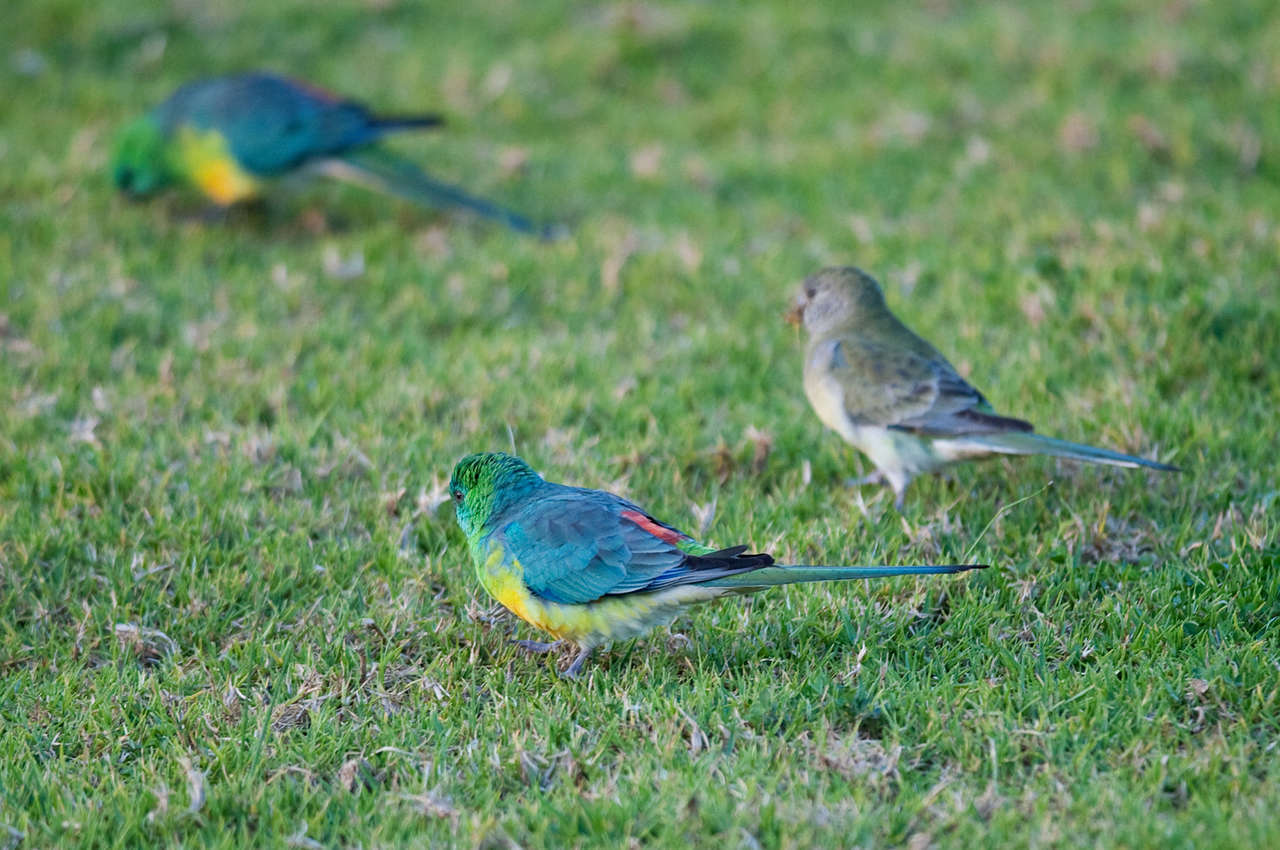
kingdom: Animalia
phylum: Chordata
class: Aves
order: Psittaciformes
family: Psittacidae
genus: Psephotus
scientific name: Psephotus haematonotus
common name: Red-rumped parrot
